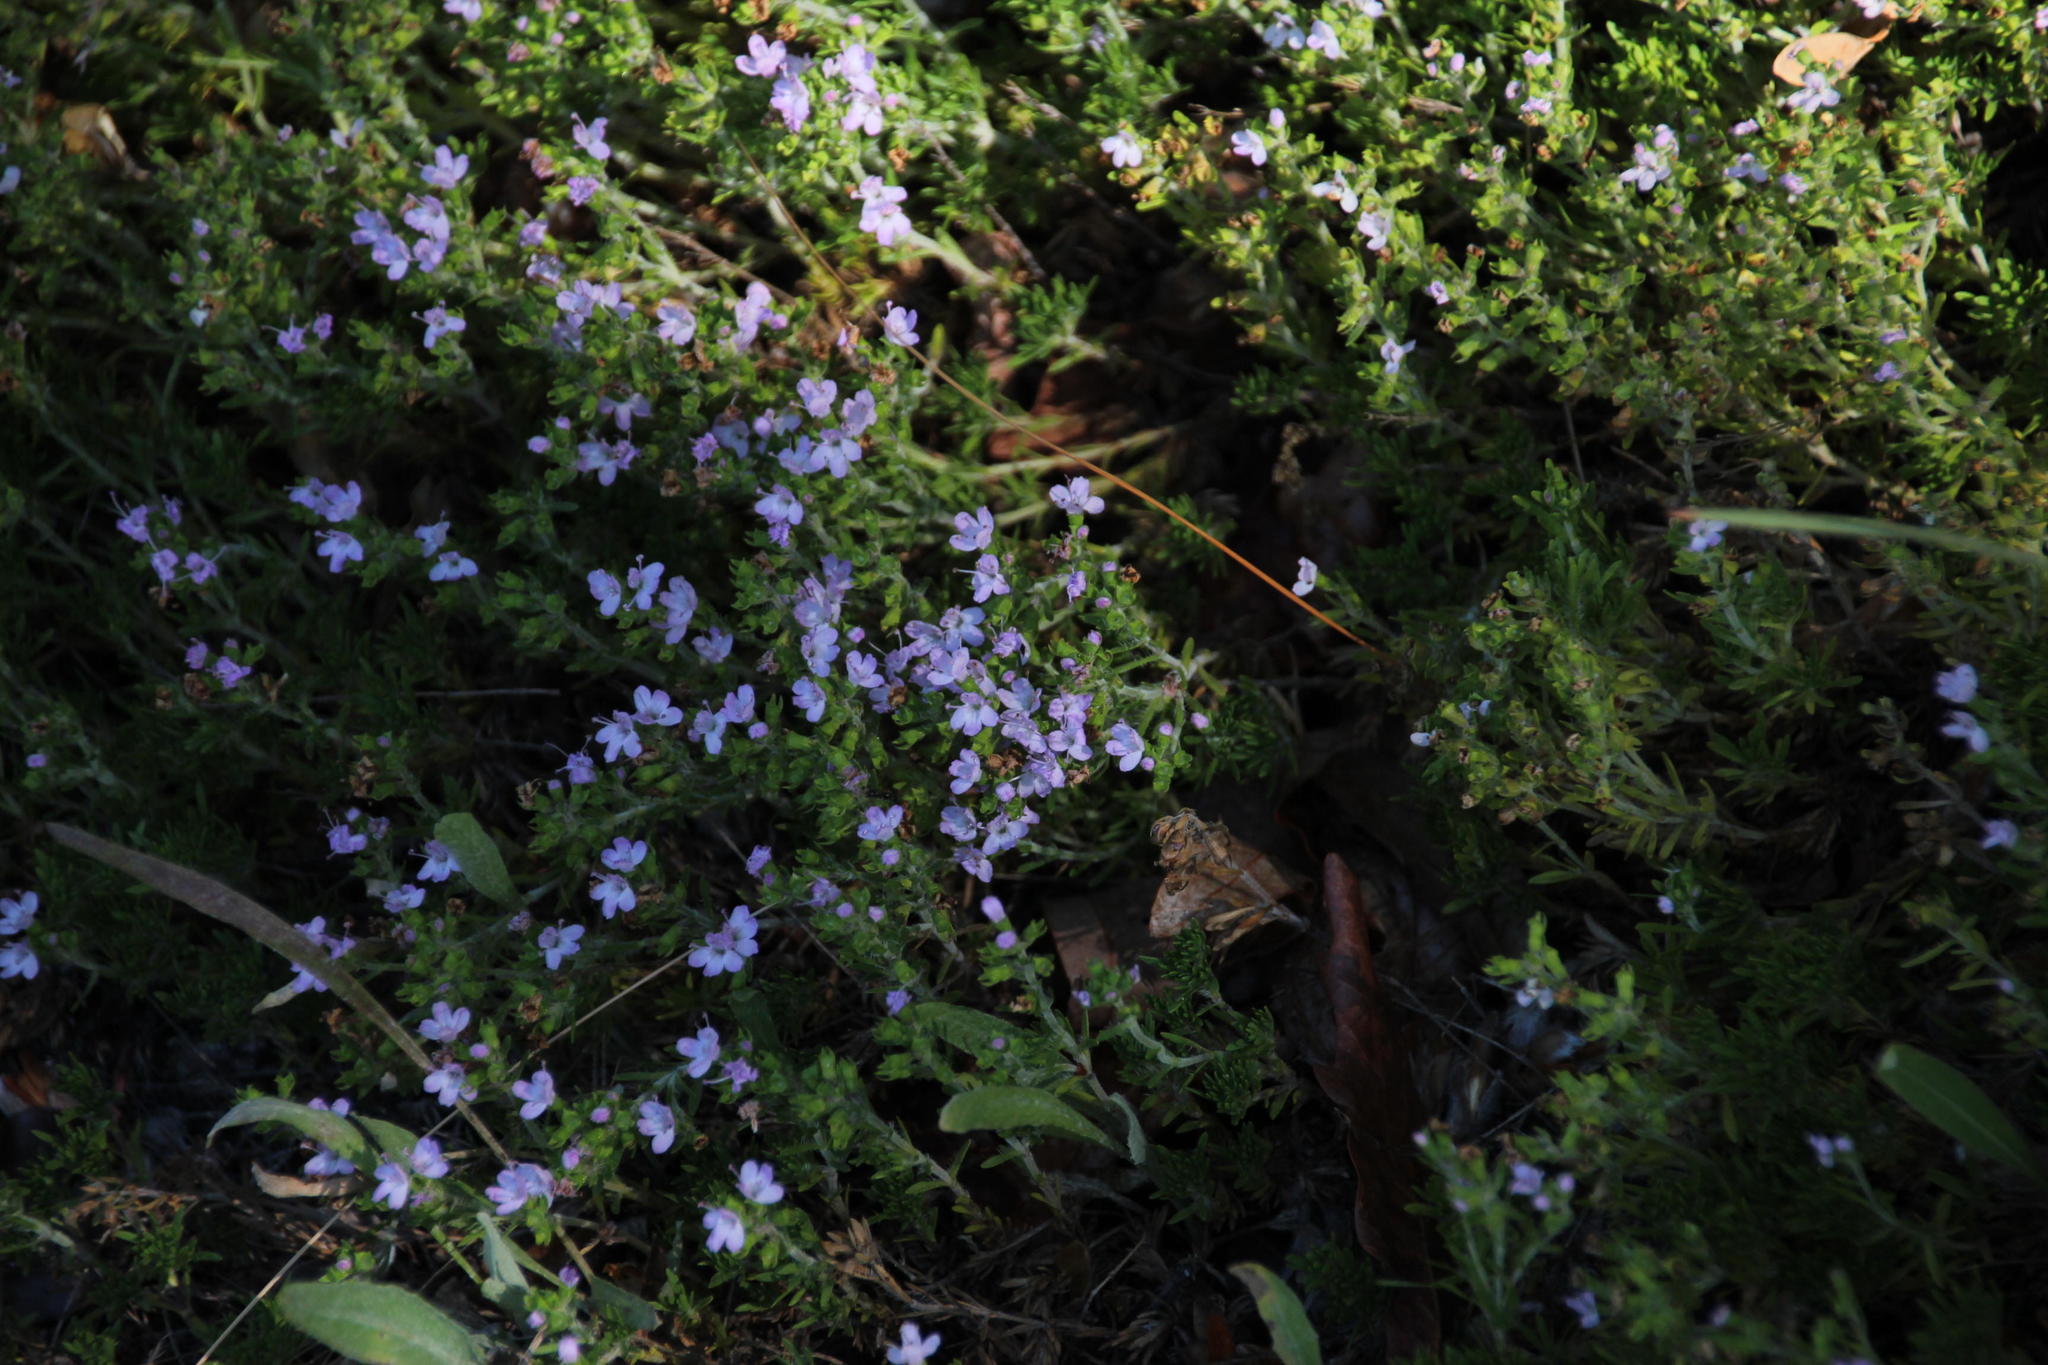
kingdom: Plantae
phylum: Tracheophyta
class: Magnoliopsida
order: Lamiales
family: Lamiaceae
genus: Thymus
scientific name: Thymus caespititius
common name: Azores thyme
